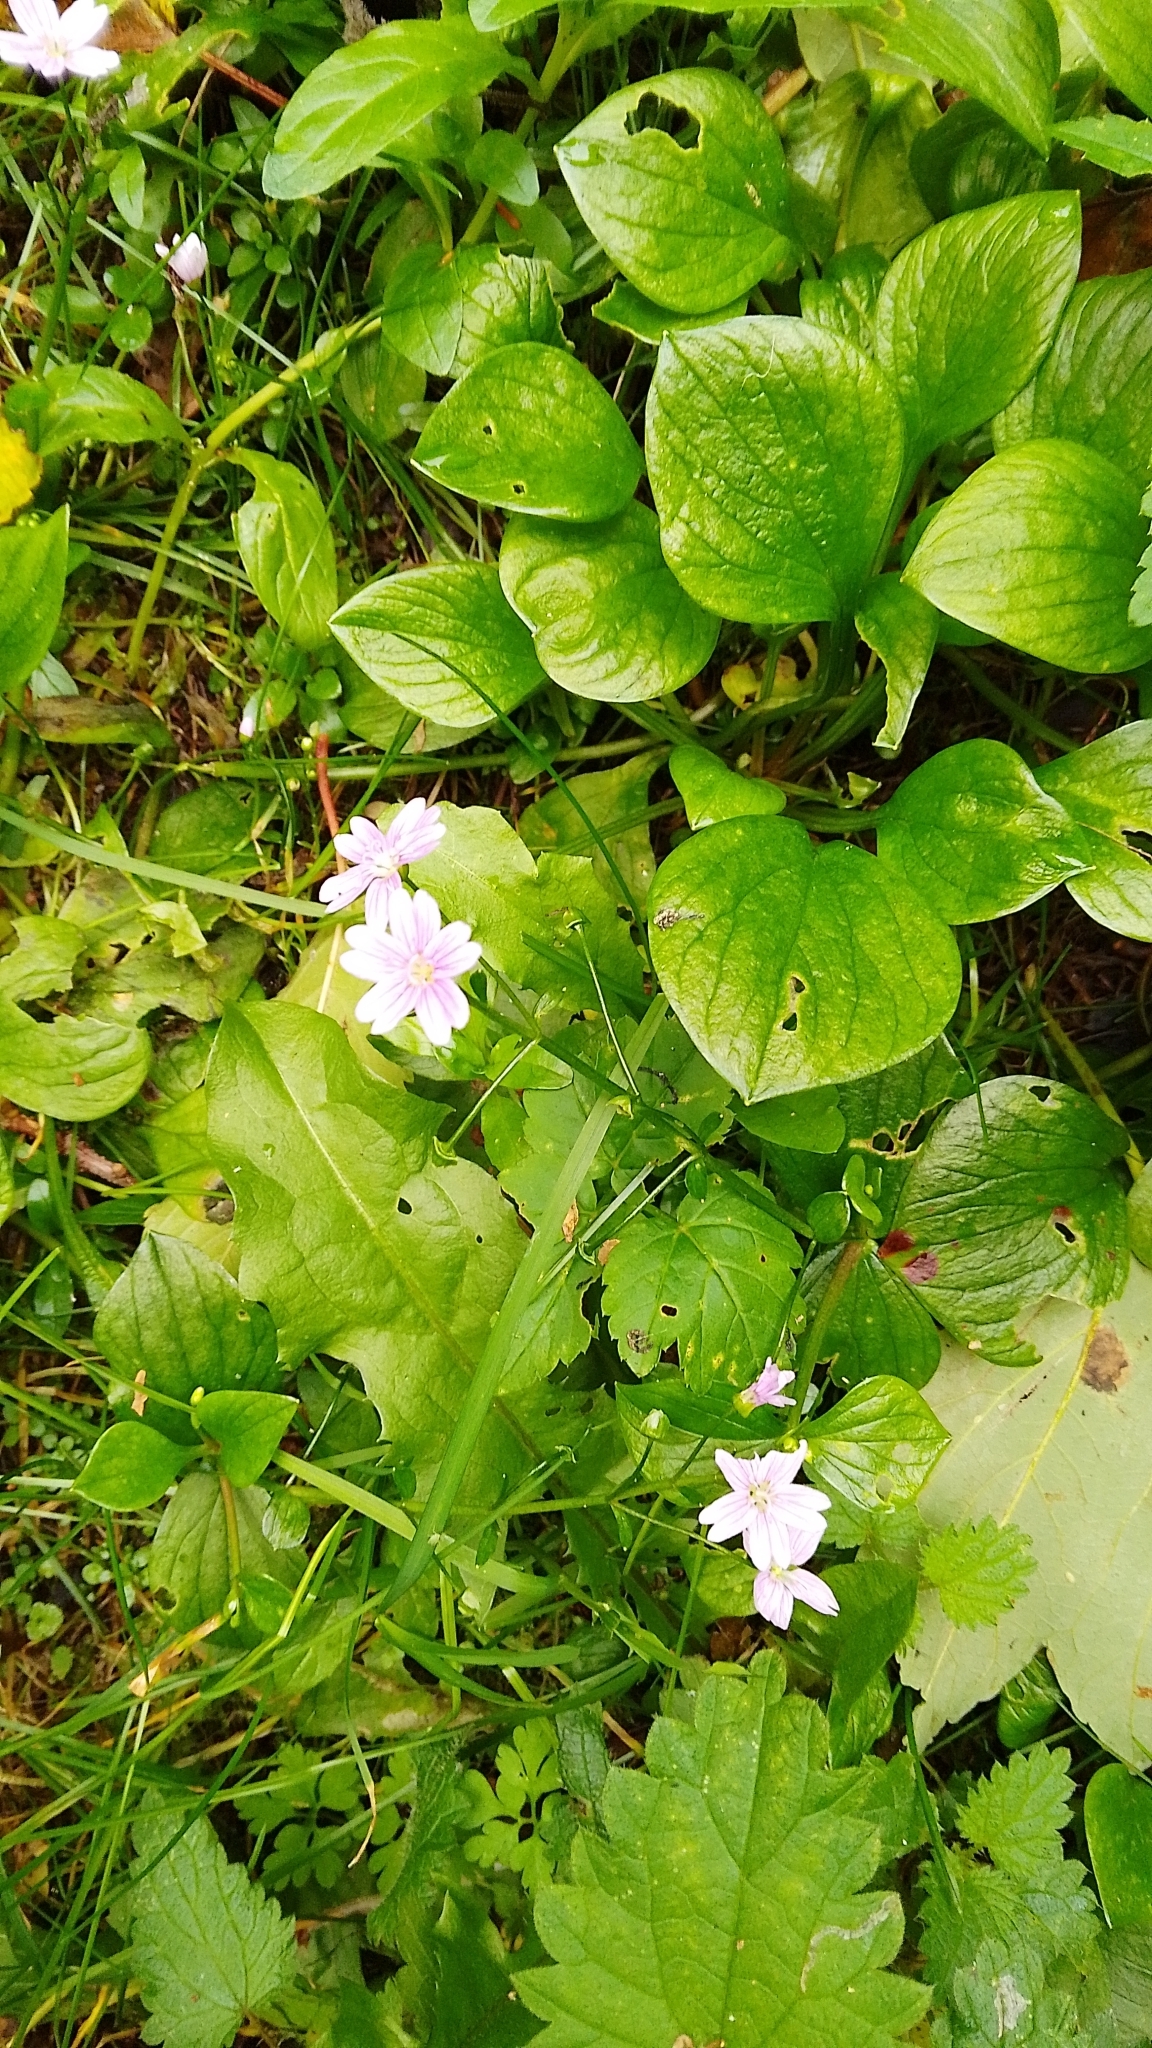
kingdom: Plantae
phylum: Tracheophyta
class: Magnoliopsida
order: Caryophyllales
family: Montiaceae
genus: Claytonia
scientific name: Claytonia sibirica
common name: Pink purslane
